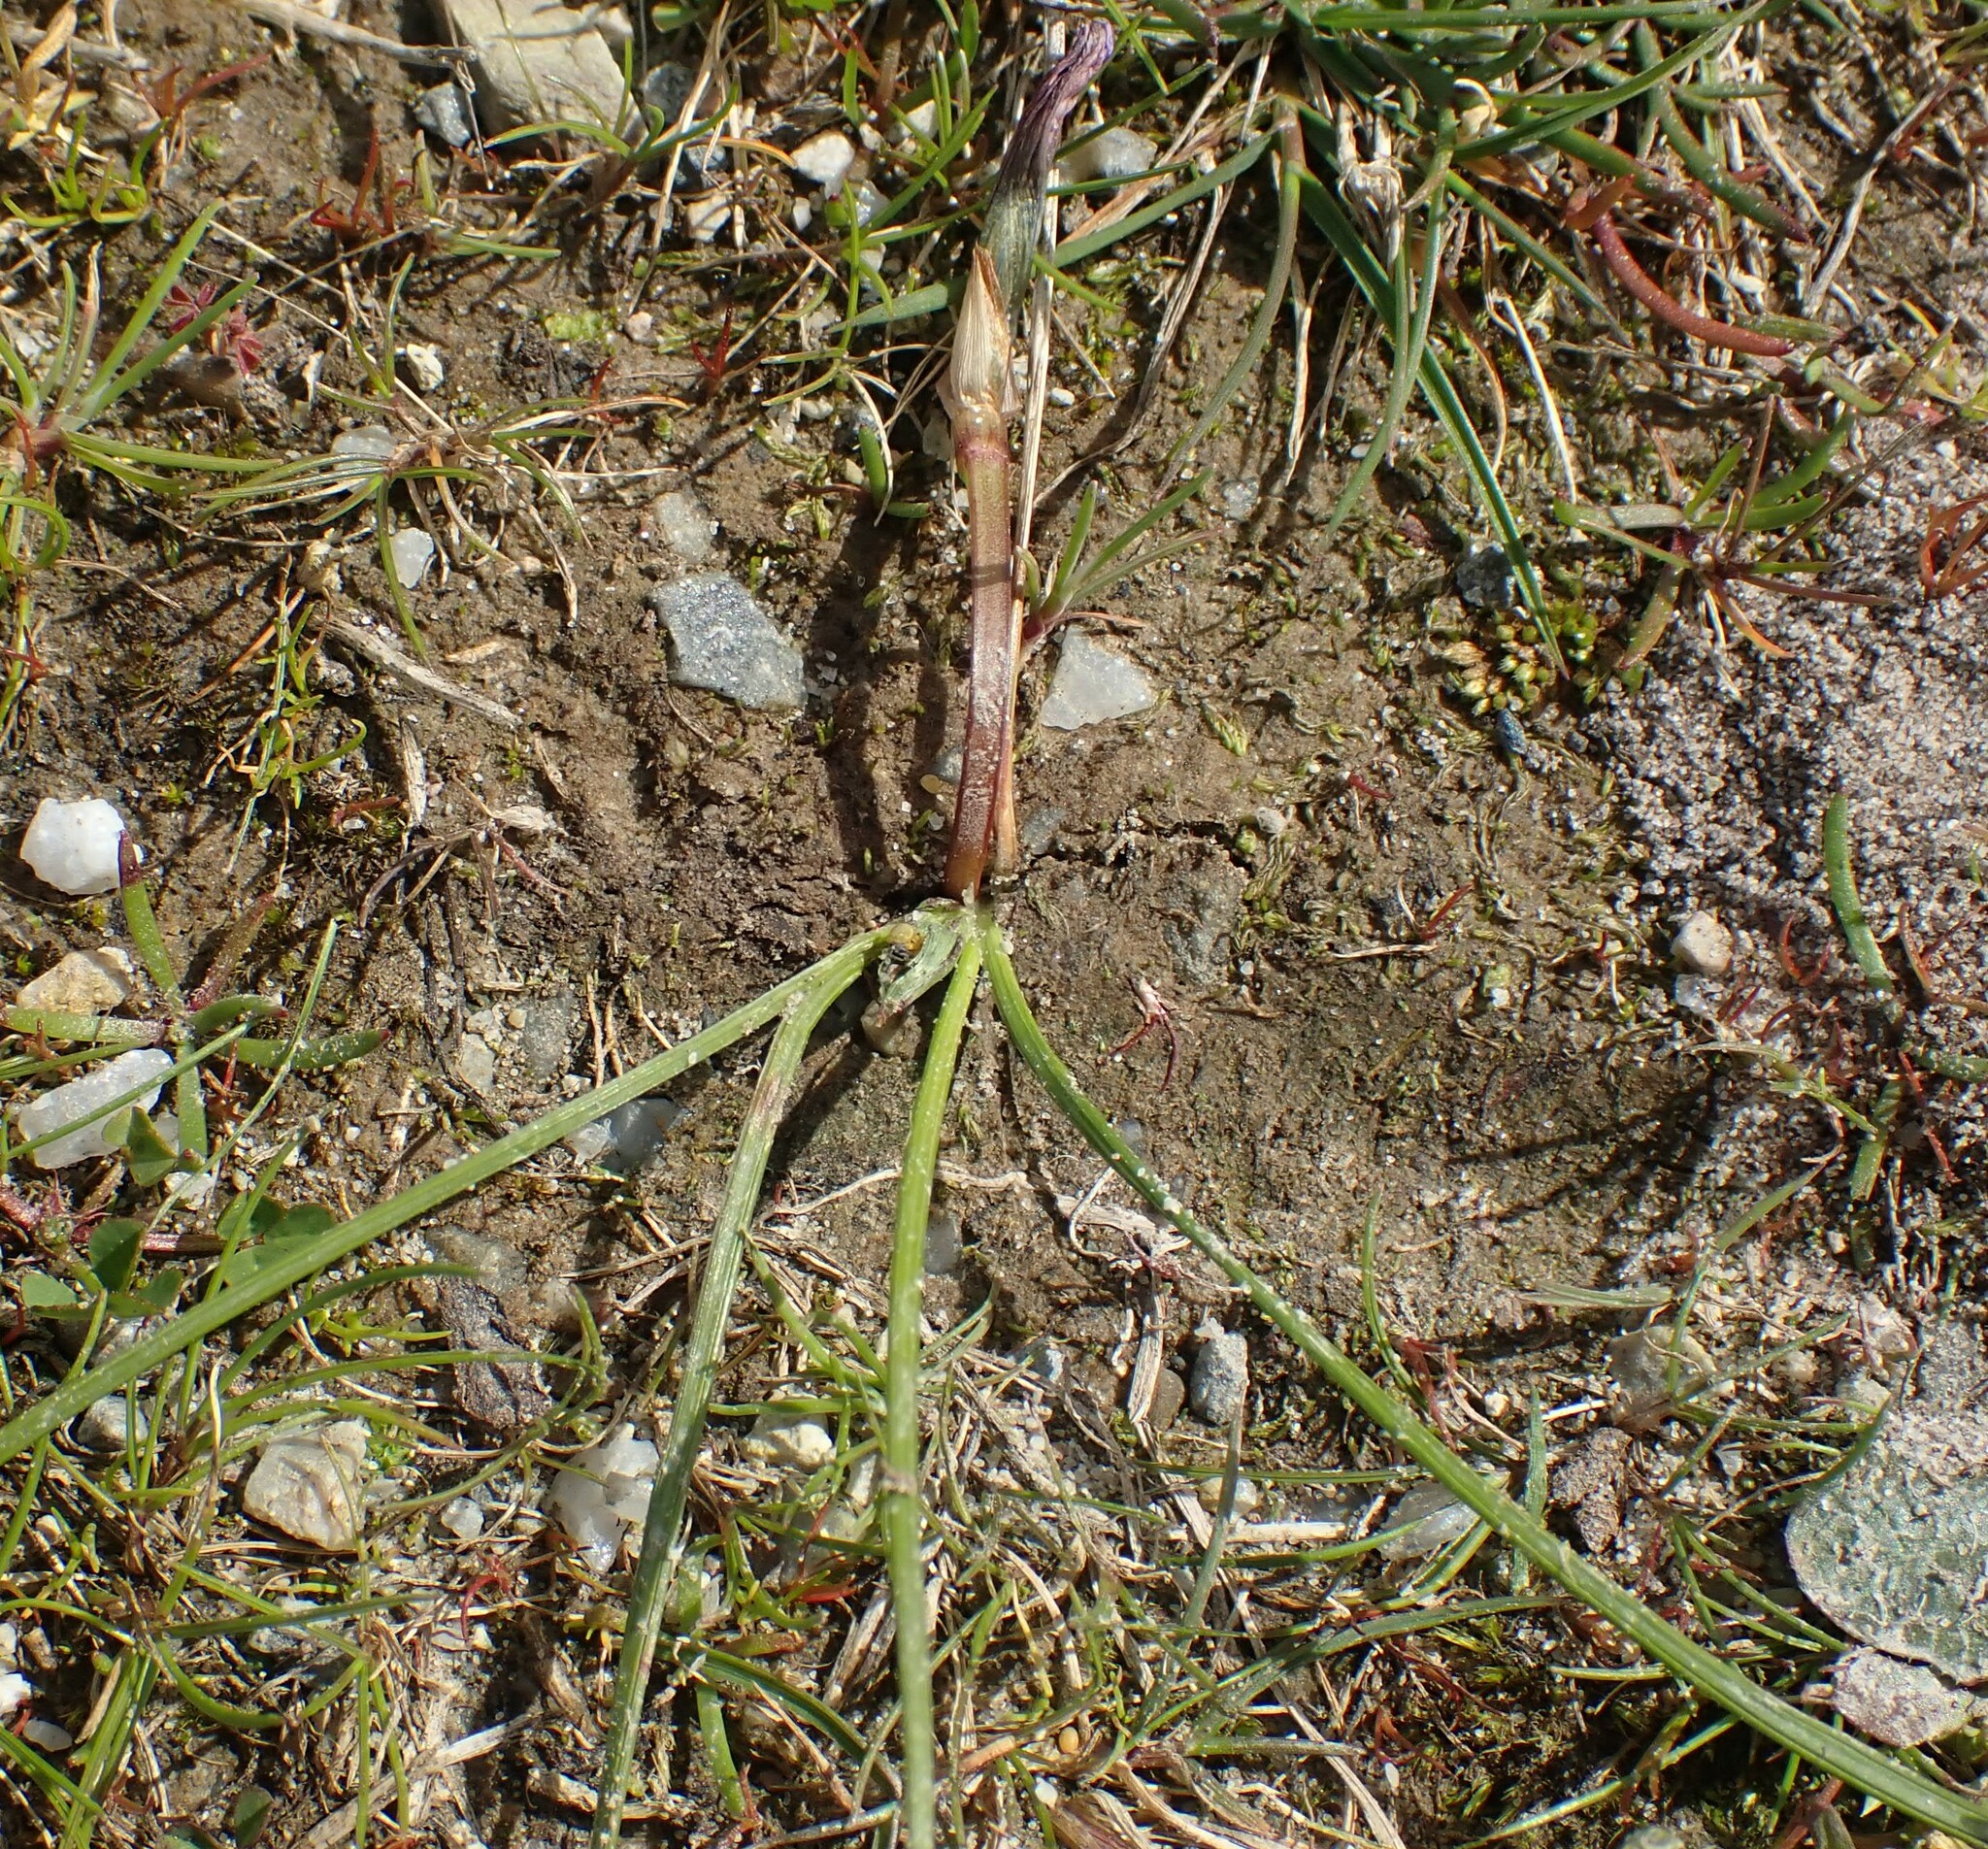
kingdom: Plantae
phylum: Tracheophyta
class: Liliopsida
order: Asparagales
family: Iridaceae
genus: Romulea
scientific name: Romulea rosea
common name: Oniongrass
